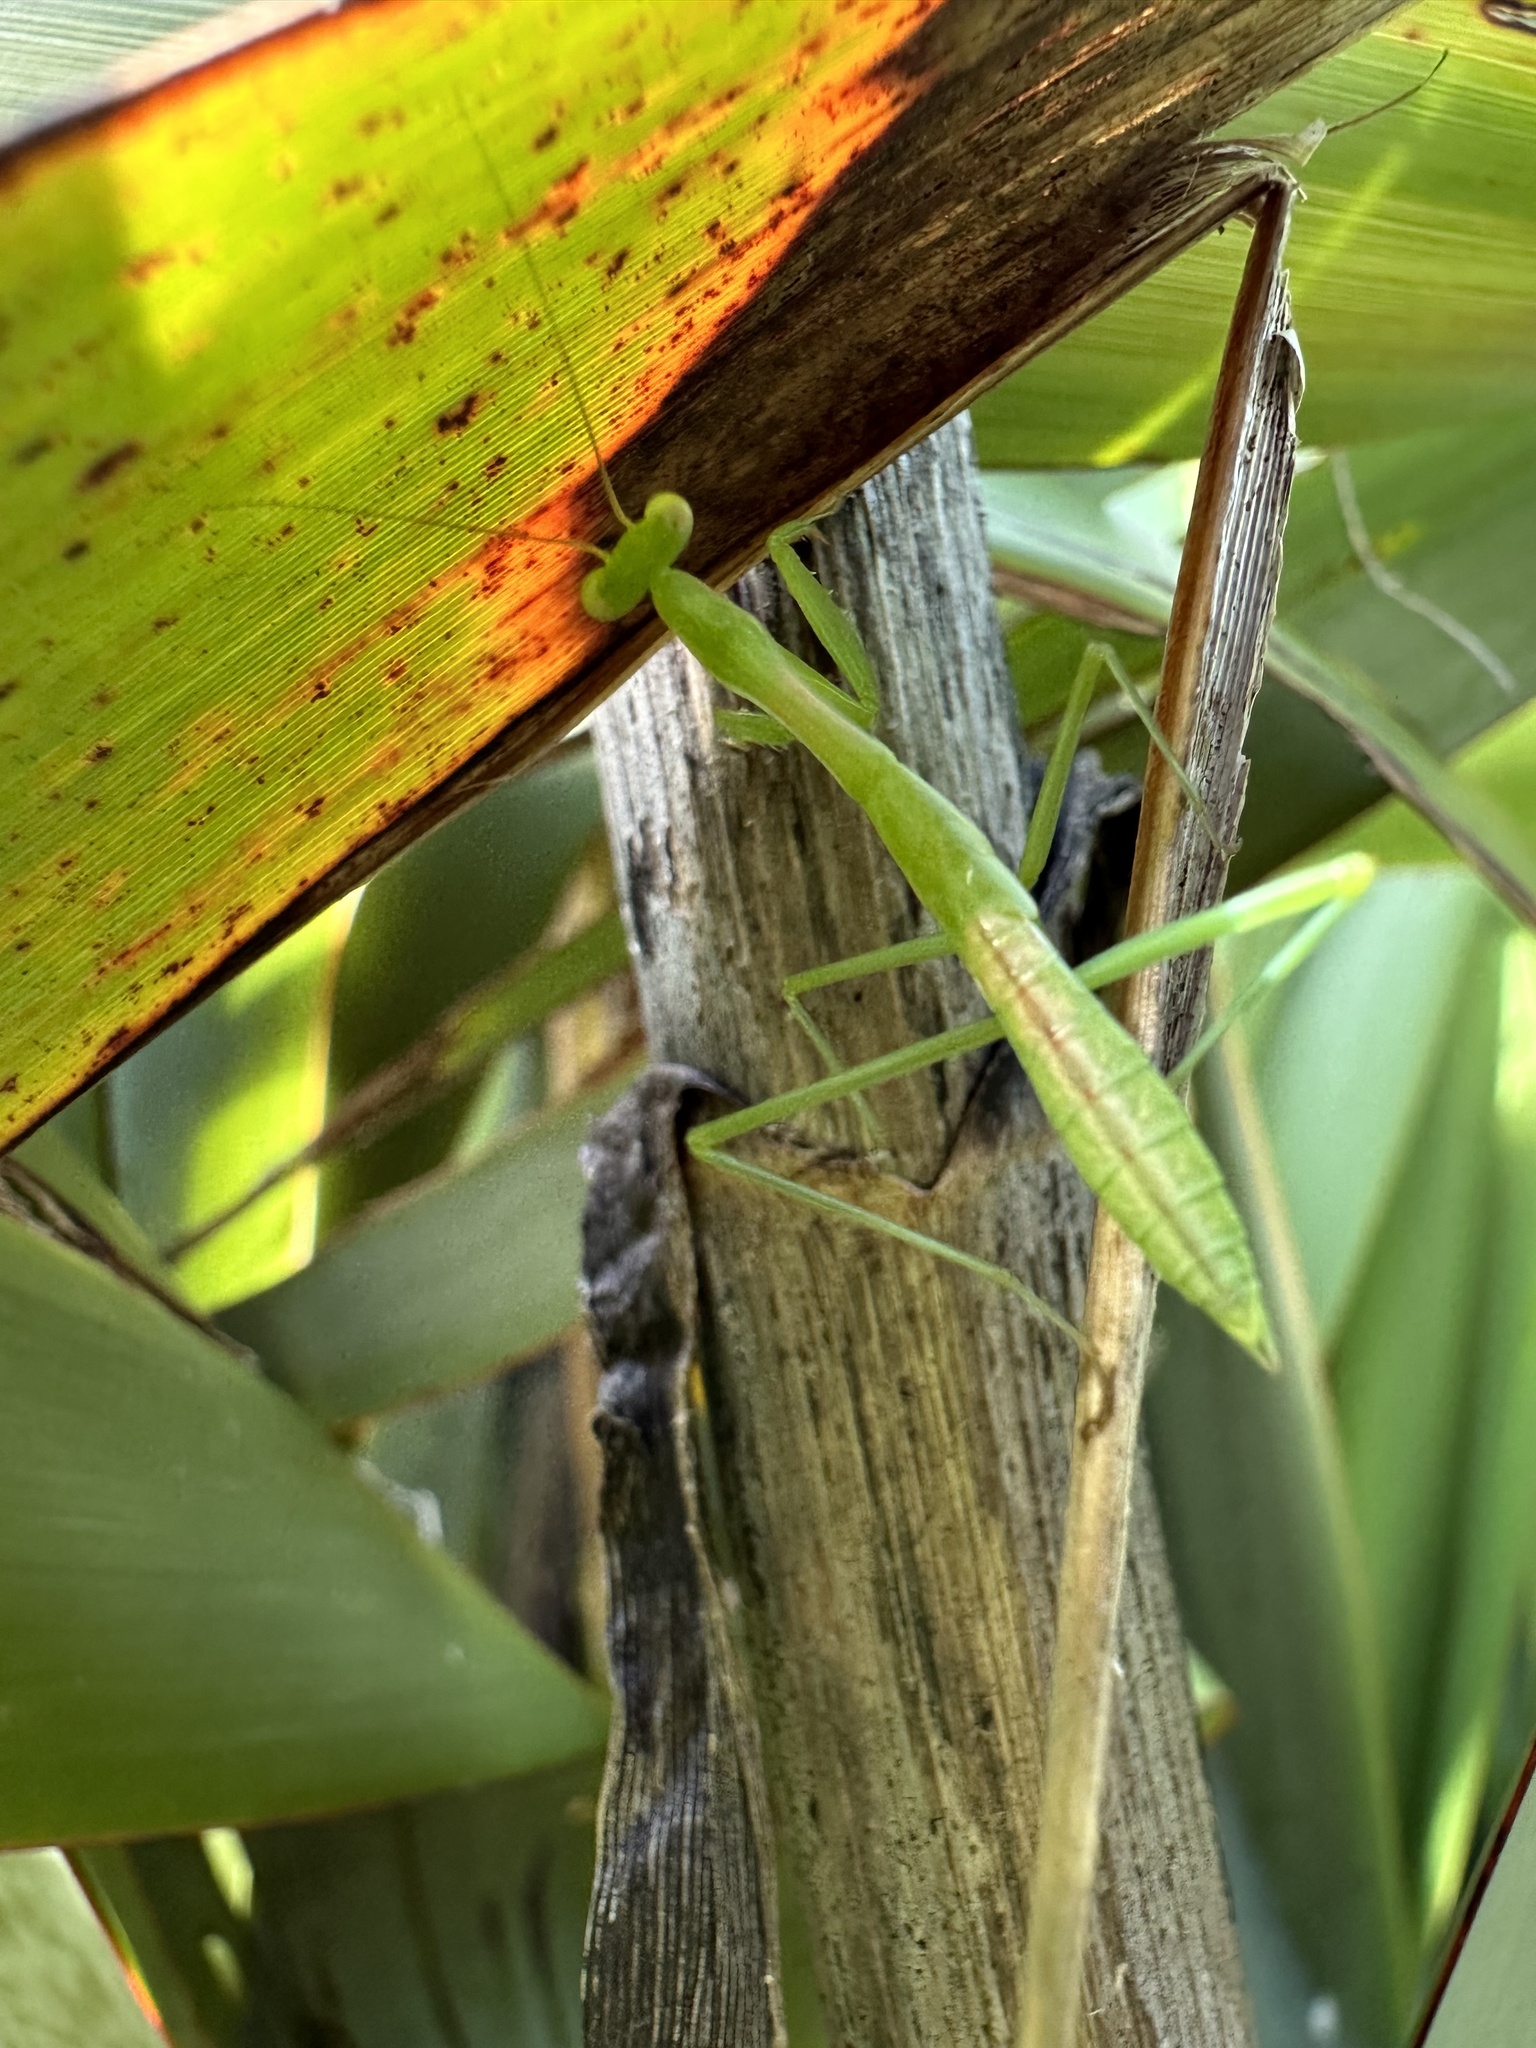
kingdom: Animalia
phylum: Arthropoda
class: Insecta
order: Mantodea
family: Miomantidae
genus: Miomantis
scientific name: Miomantis caffra
